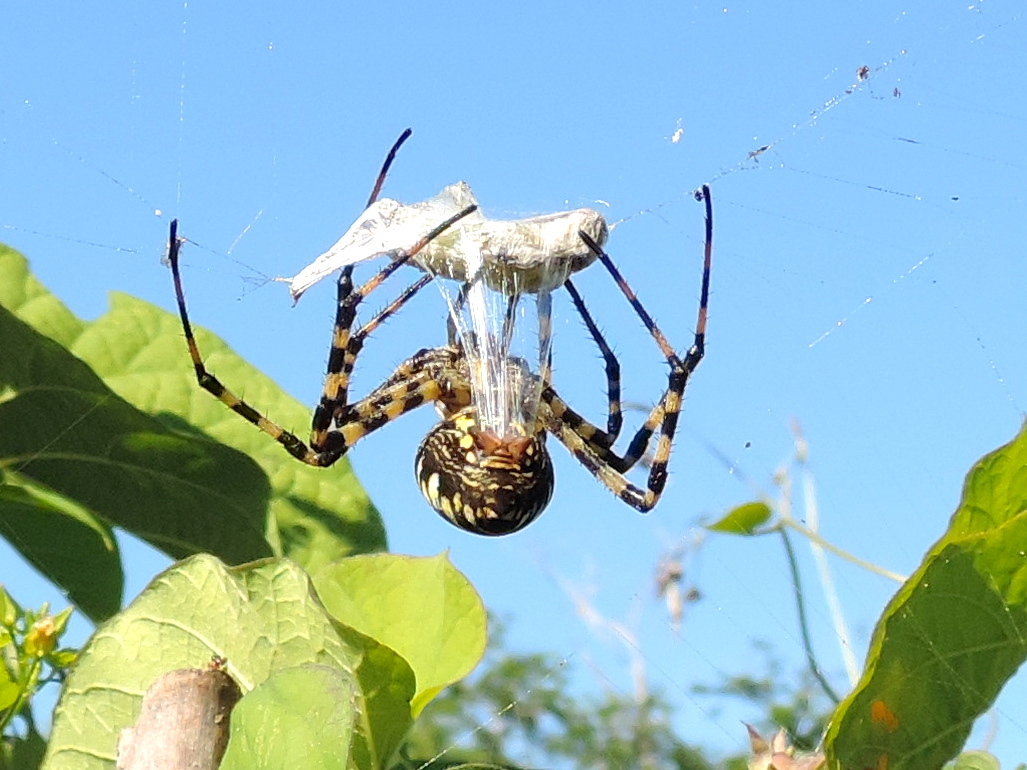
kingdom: Animalia
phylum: Arthropoda
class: Arachnida
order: Araneae
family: Araneidae
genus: Argiope
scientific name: Argiope aurantia
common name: Orb weavers
